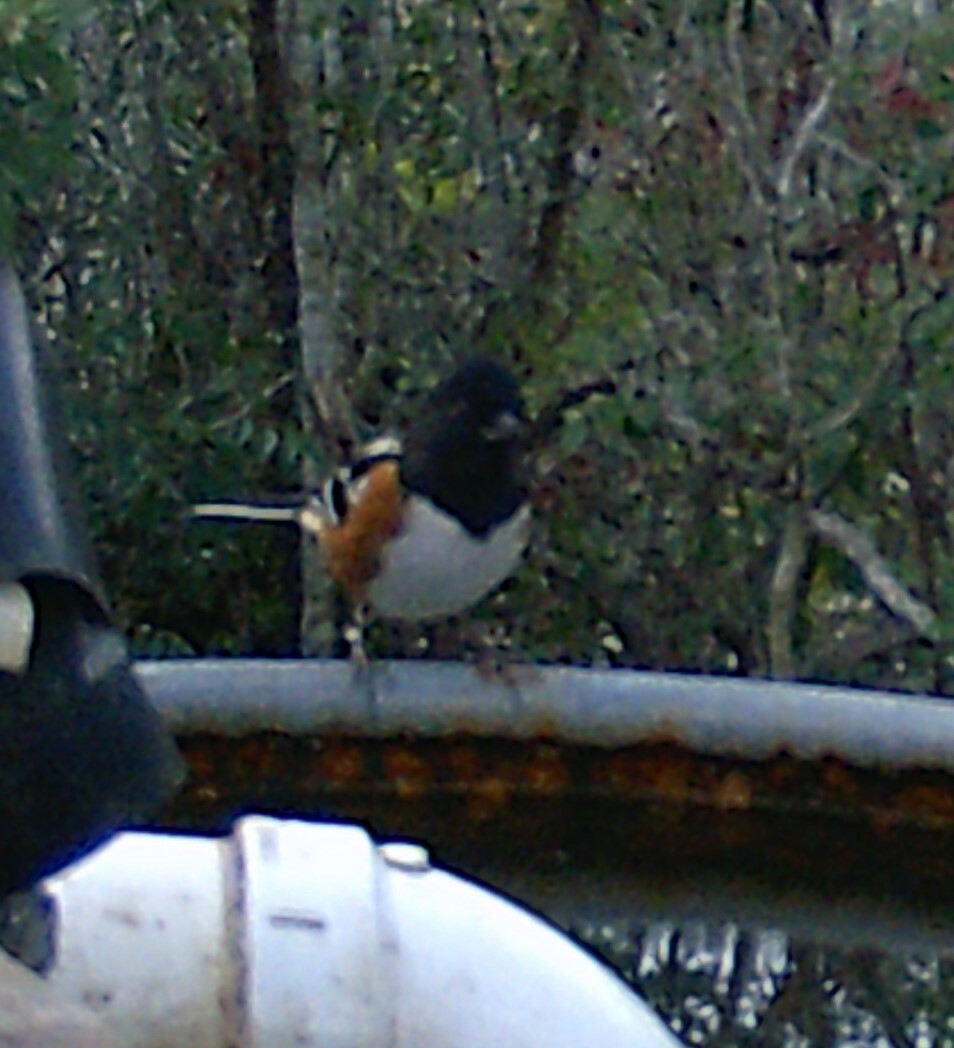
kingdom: Animalia
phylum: Chordata
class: Aves
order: Passeriformes
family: Passerellidae
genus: Pipilo
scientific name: Pipilo maculatus
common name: Spotted towhee
